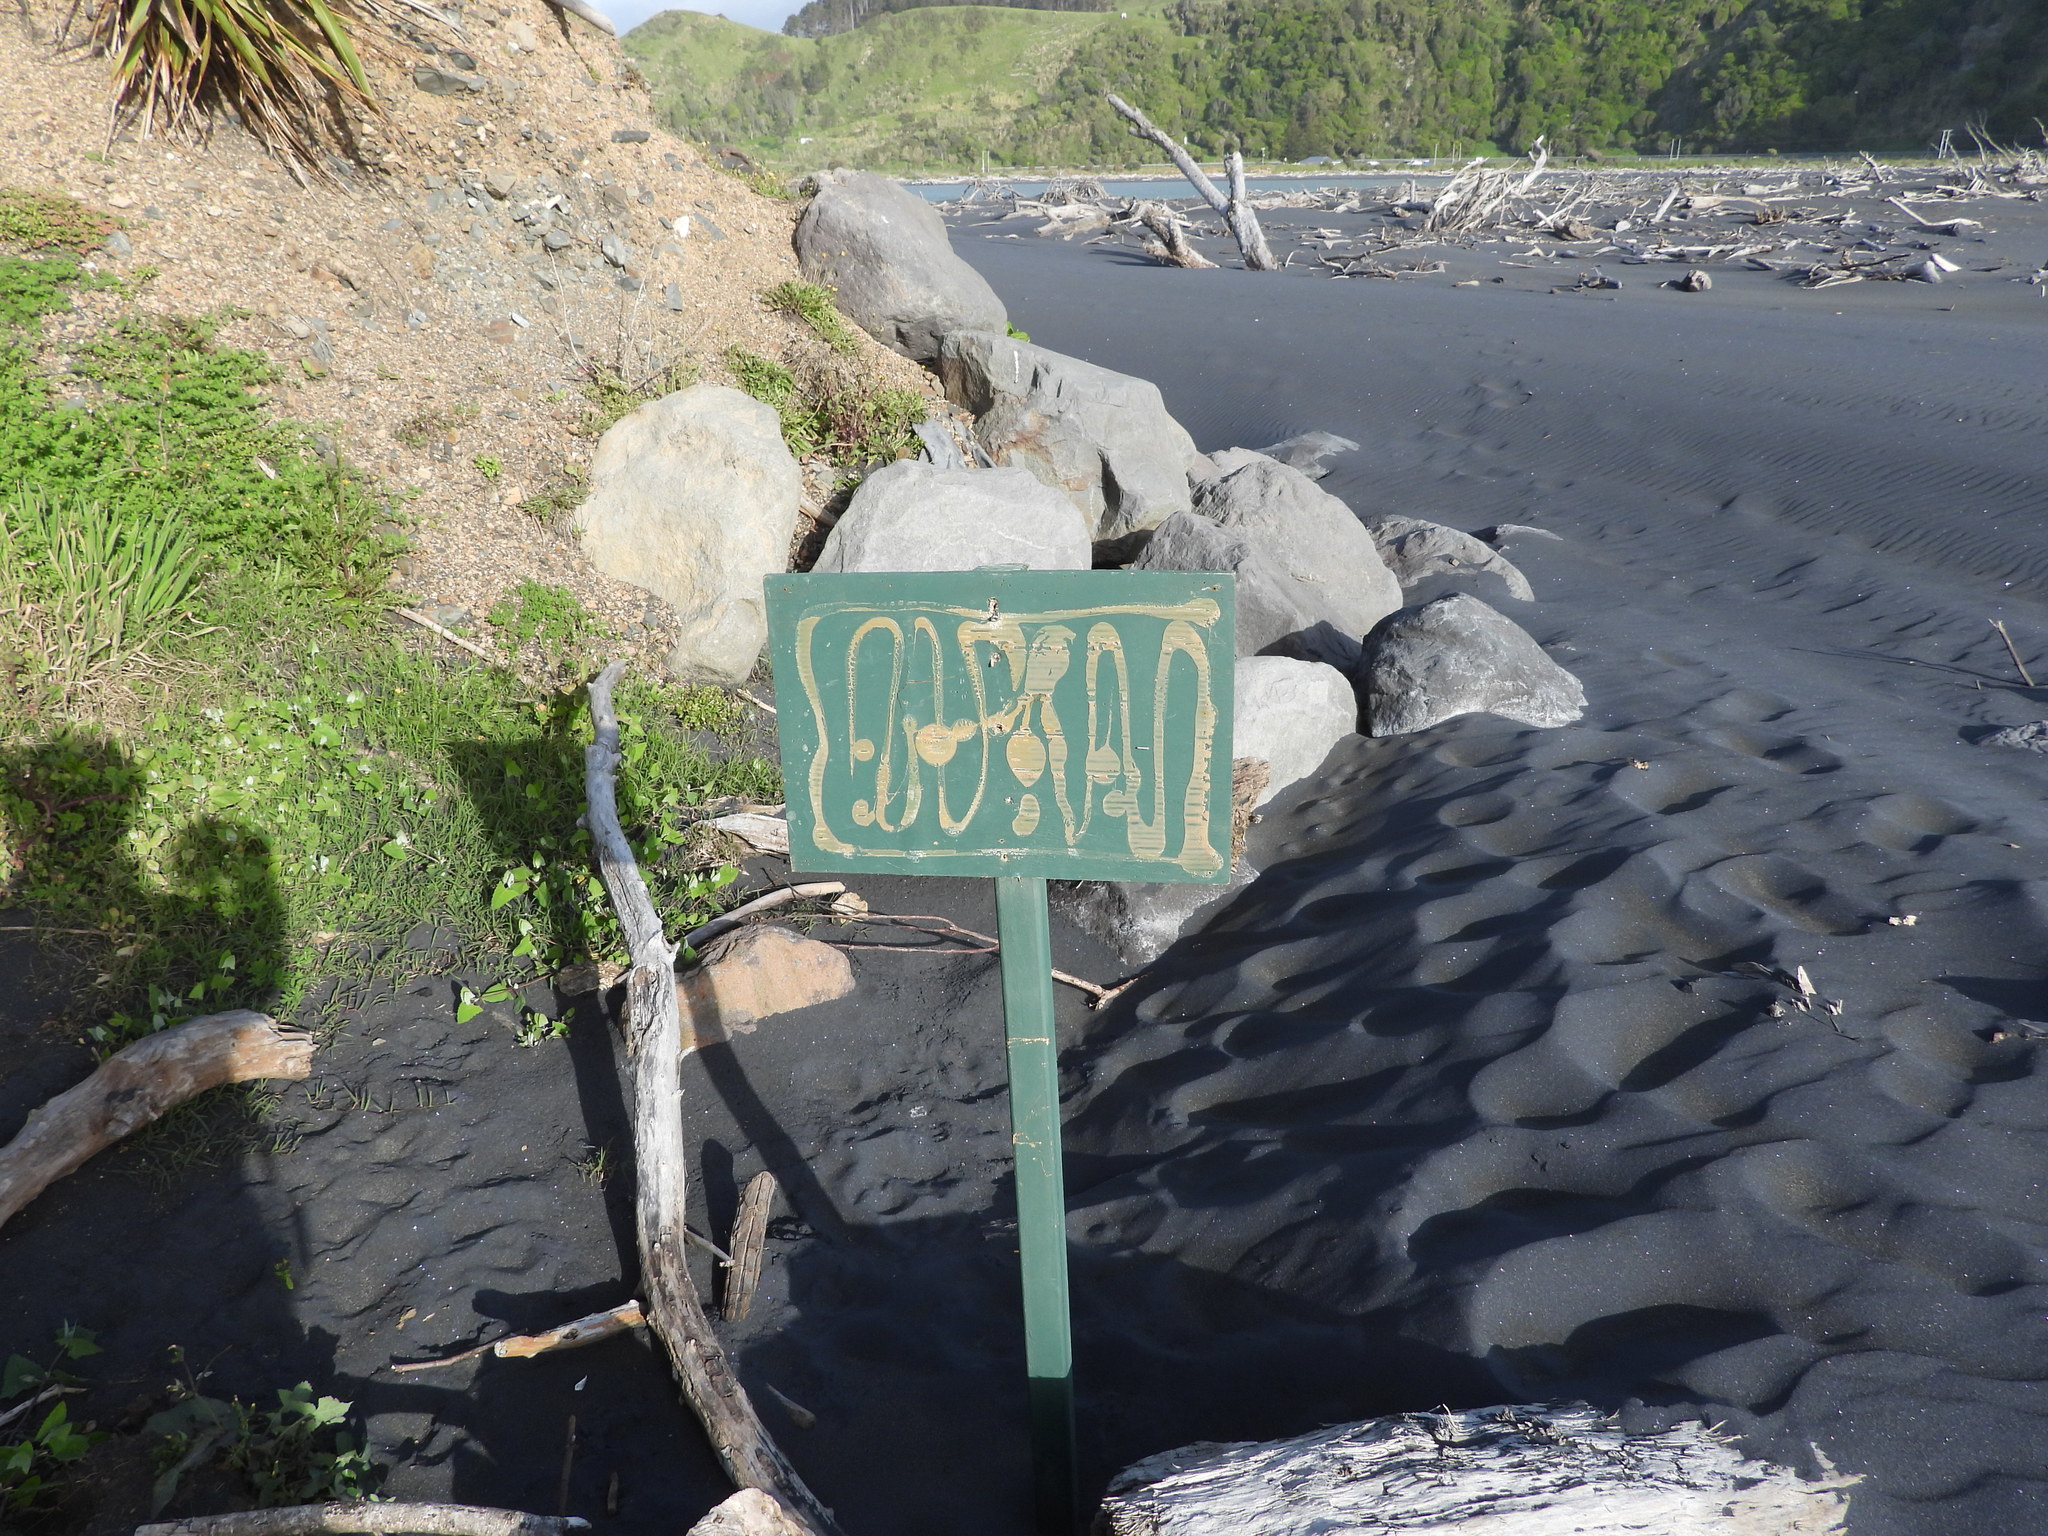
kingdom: Animalia
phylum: Chordata
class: Aves
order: Charadriiformes
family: Charadriidae
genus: Anarhynchus
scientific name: Anarhynchus
